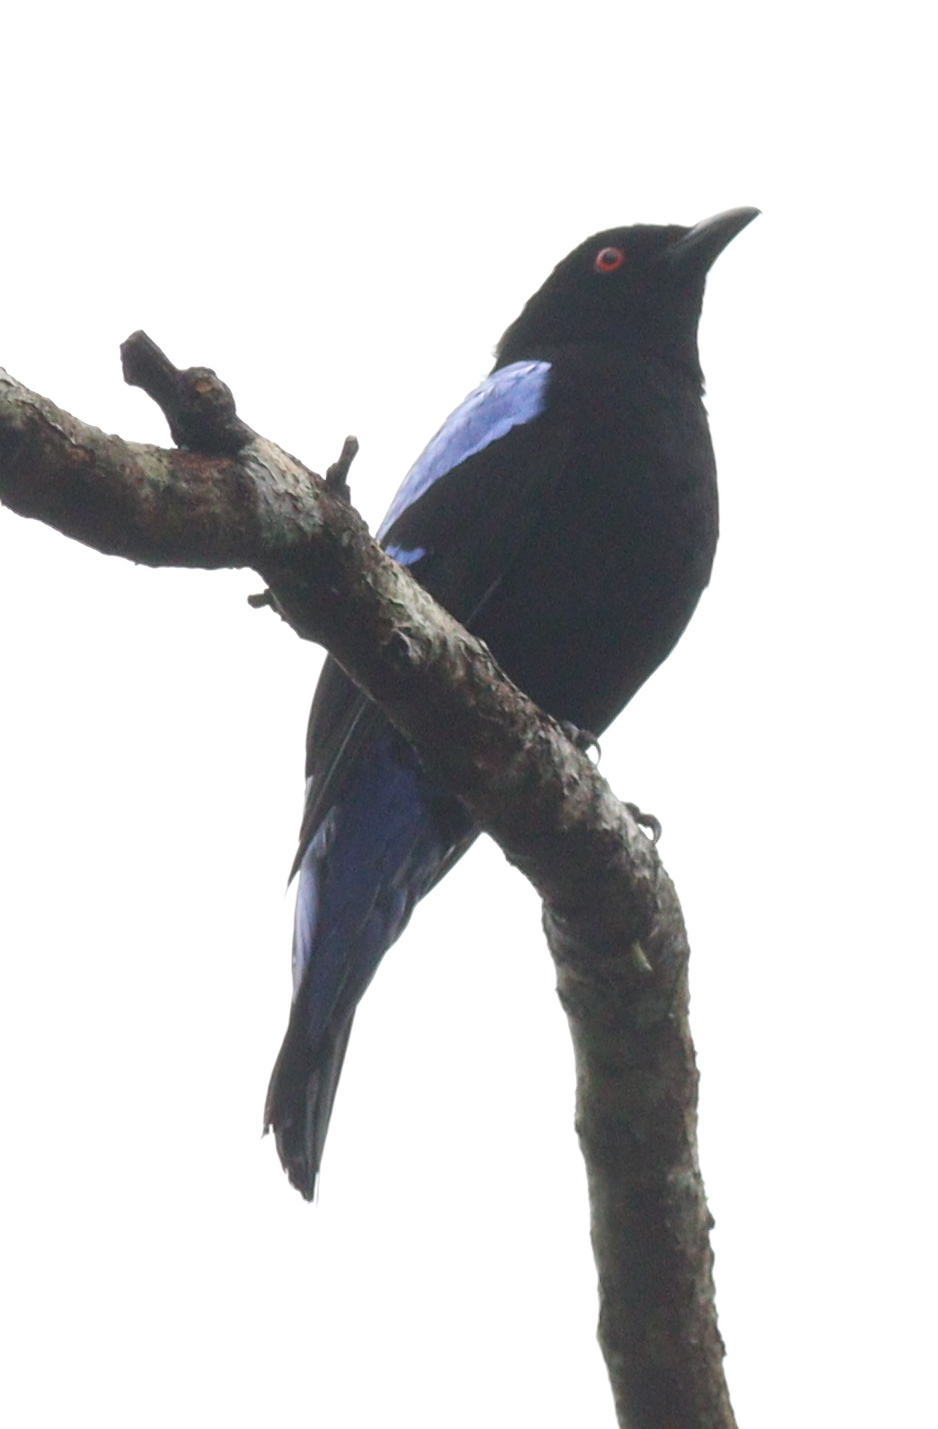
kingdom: Animalia
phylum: Chordata
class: Aves
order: Passeriformes
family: Irenidae
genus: Irena
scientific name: Irena puella
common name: Asian fairy-bluebird
